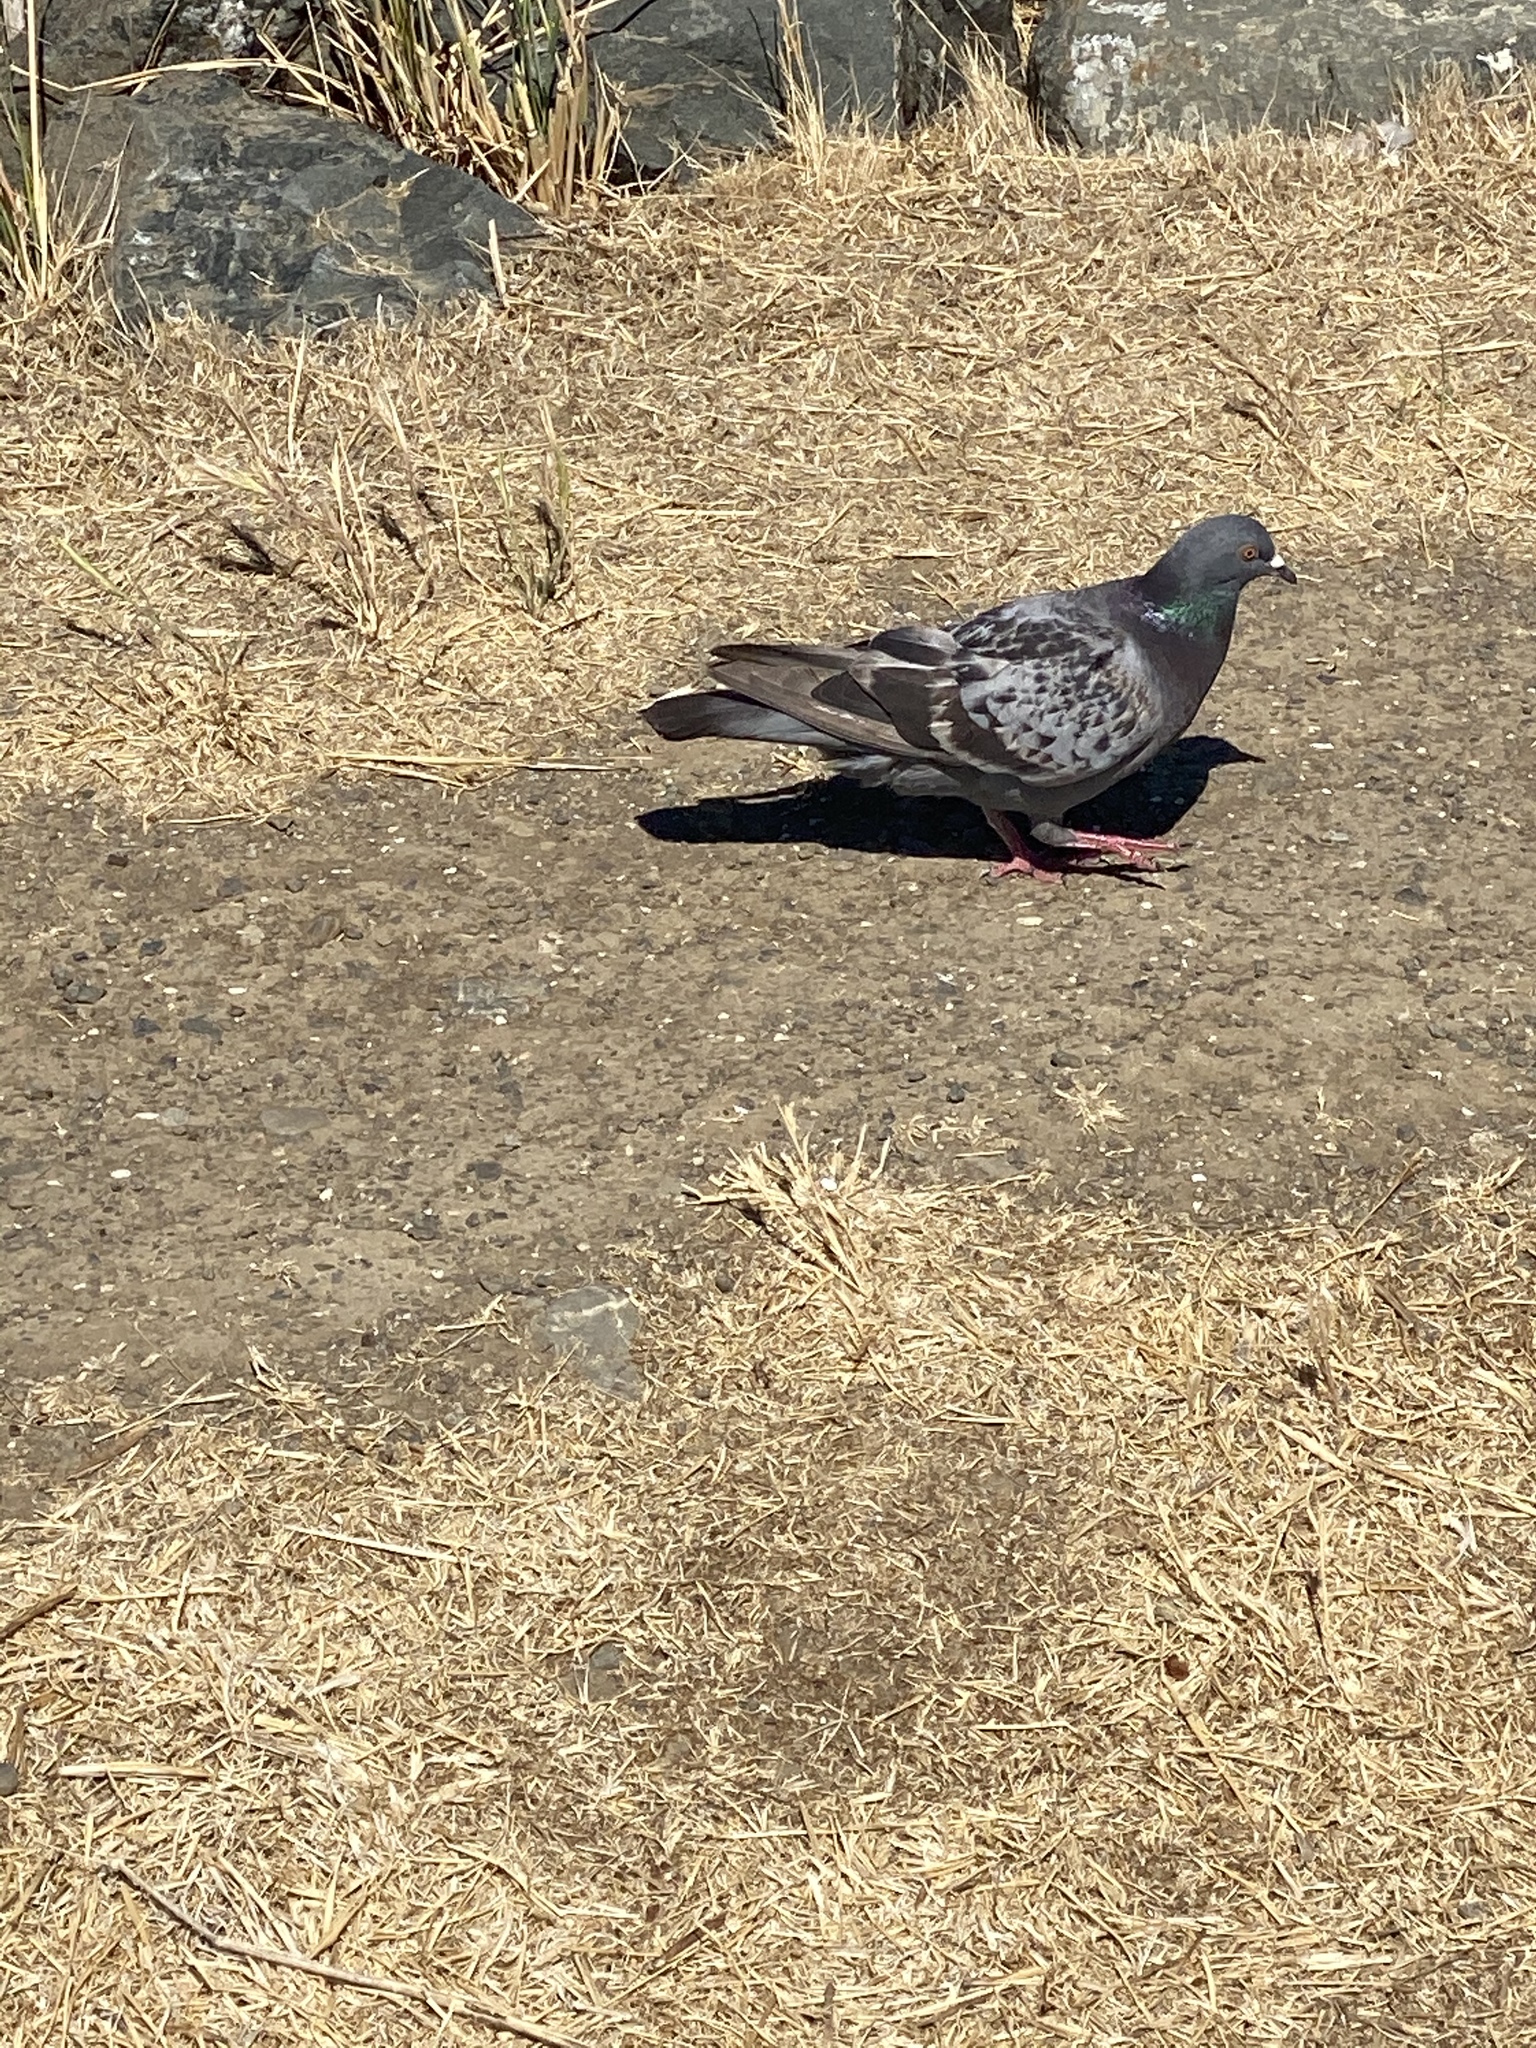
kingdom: Animalia
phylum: Chordata
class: Aves
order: Columbiformes
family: Columbidae
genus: Columba
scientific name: Columba livia
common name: Rock pigeon
